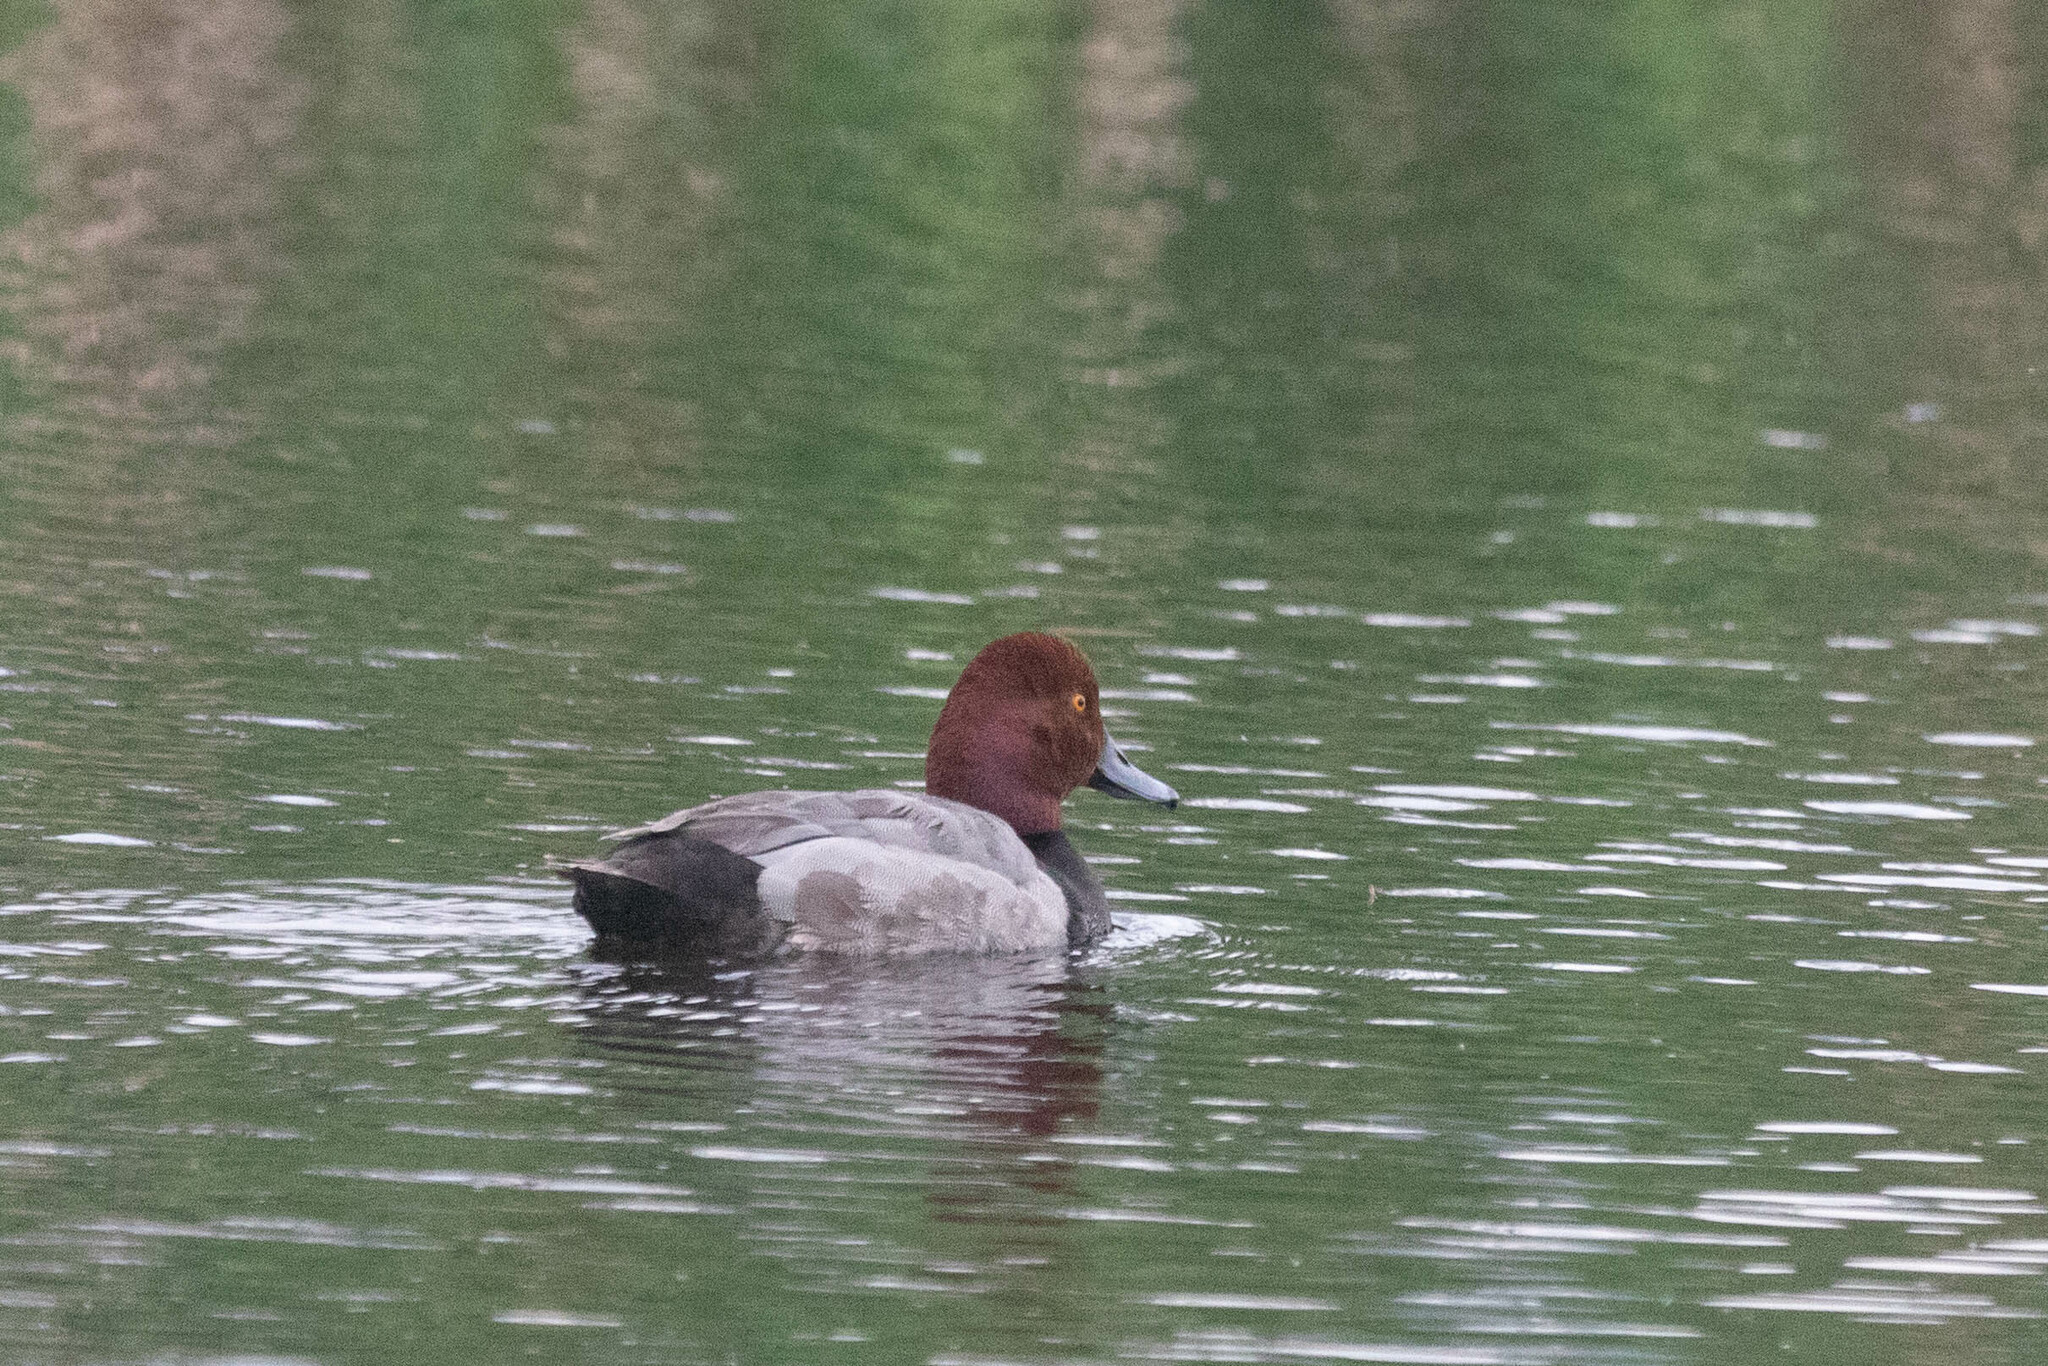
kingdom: Animalia
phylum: Chordata
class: Aves
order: Anseriformes
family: Anatidae
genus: Aythya
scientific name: Aythya americana
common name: Redhead
